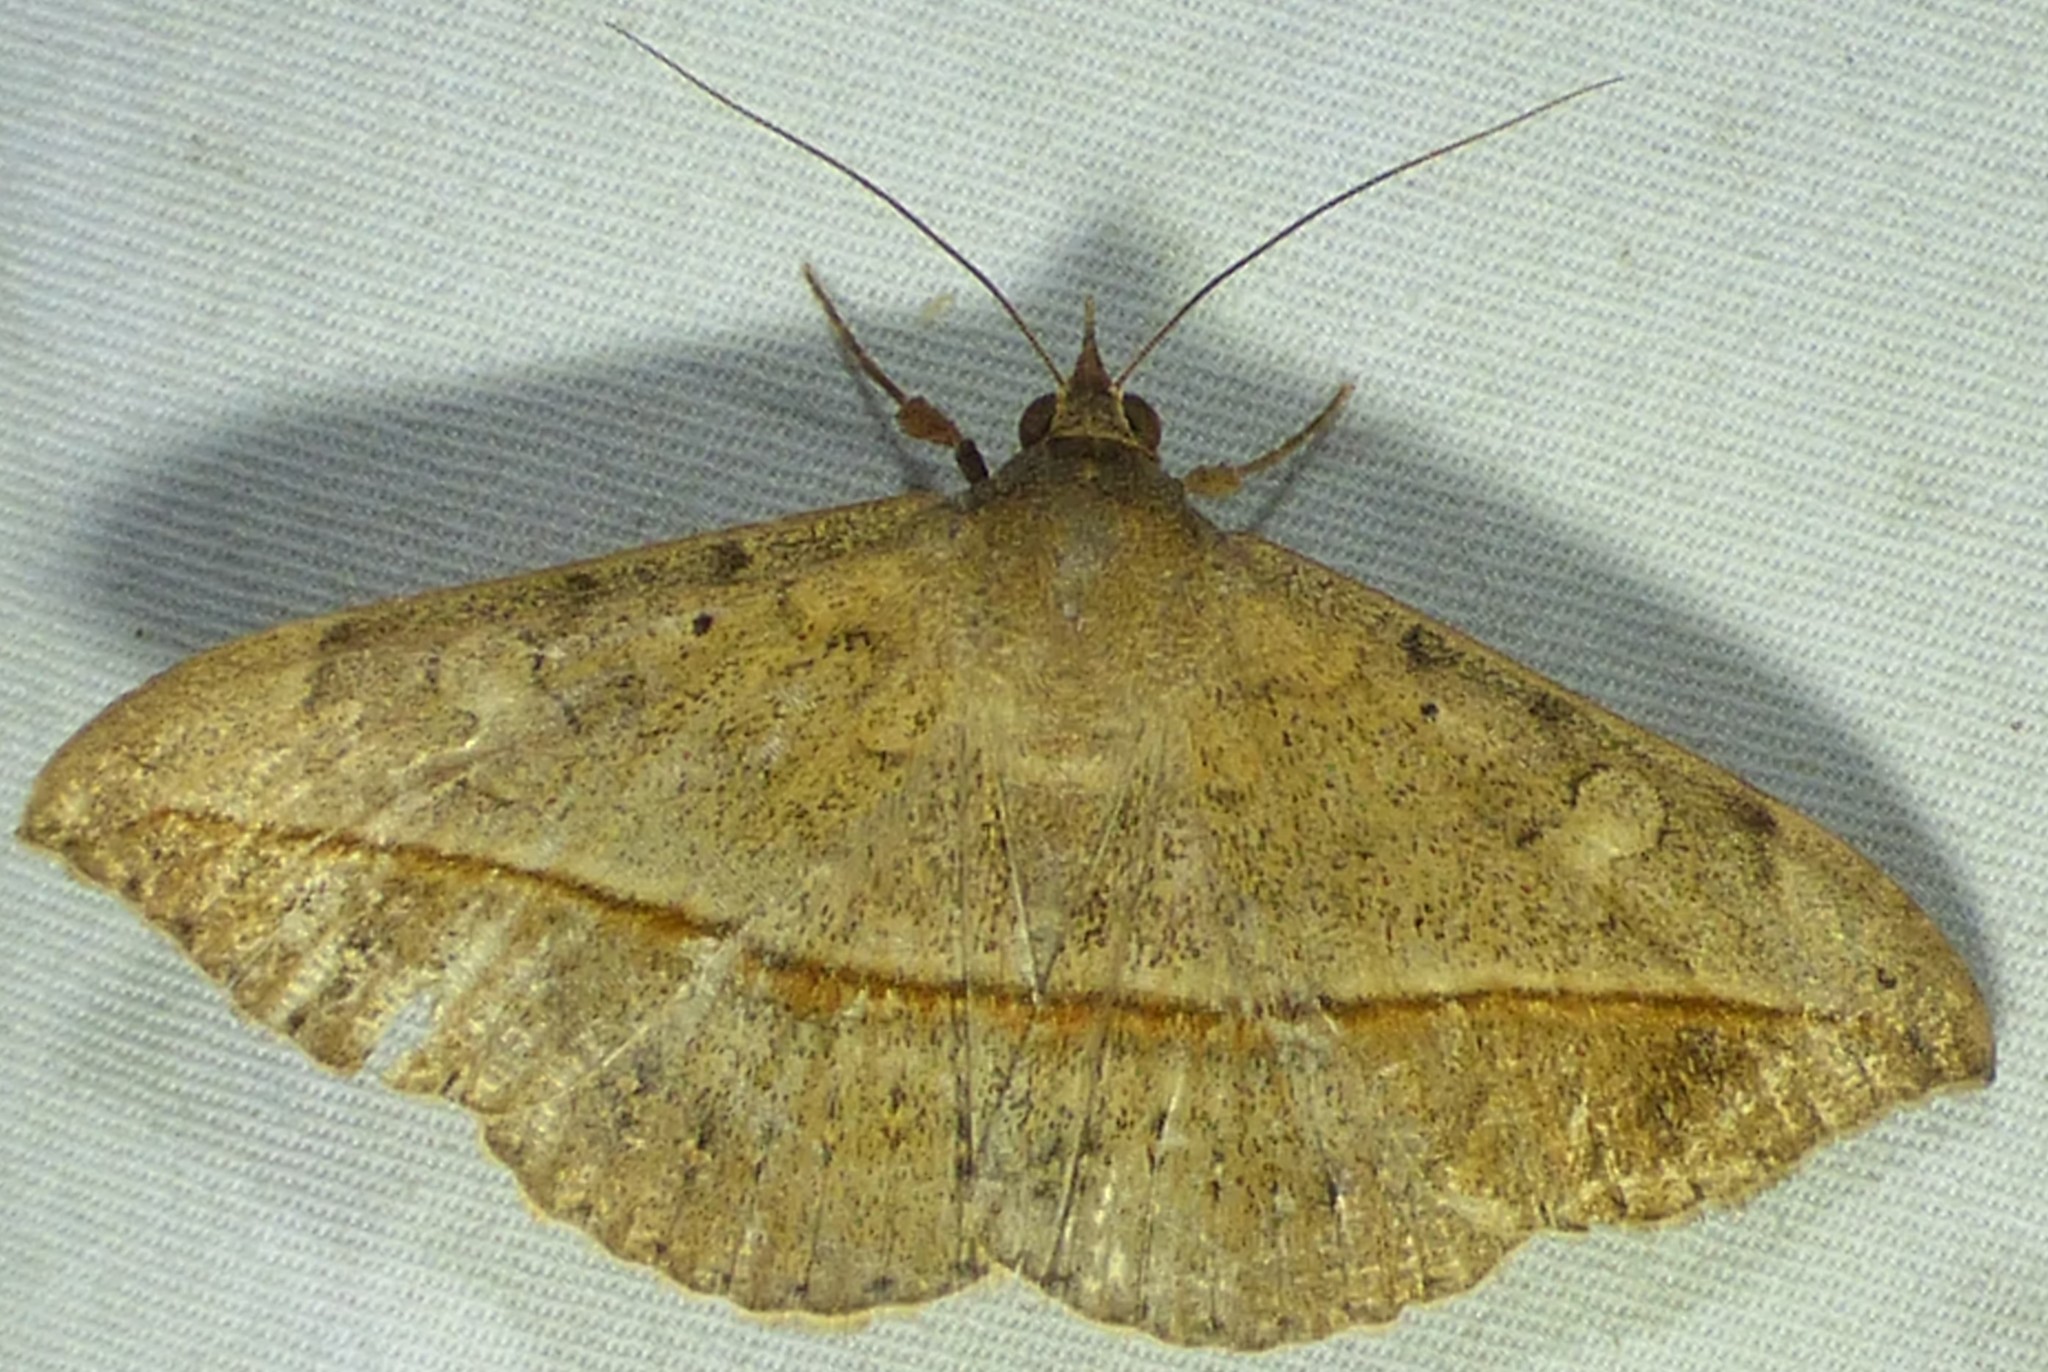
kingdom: Animalia
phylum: Arthropoda
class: Insecta
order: Lepidoptera
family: Erebidae
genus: Anticarsia
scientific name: Anticarsia gemmatalis
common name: Cutworm moth
